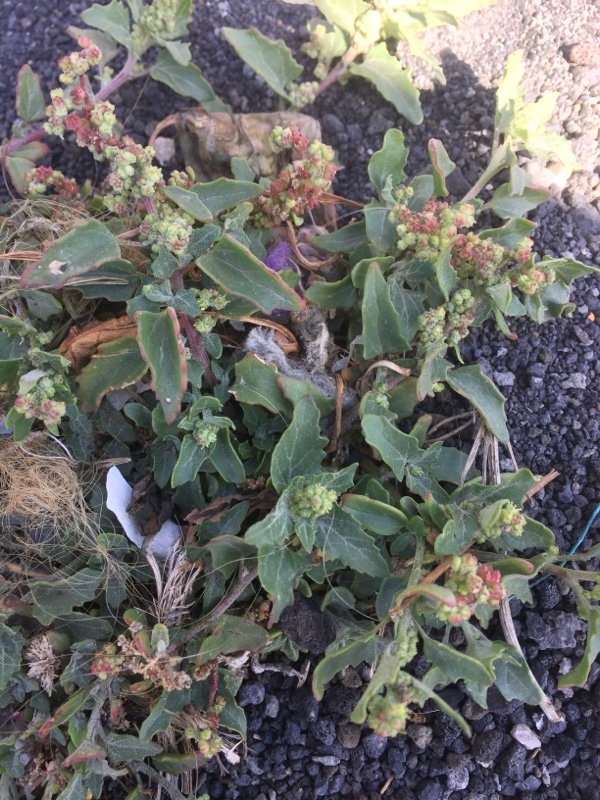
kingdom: Plantae
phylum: Tracheophyta
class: Magnoliopsida
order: Caryophyllales
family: Amaranthaceae
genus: Atriplex
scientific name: Atriplex semibaccata
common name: Australian saltbush
